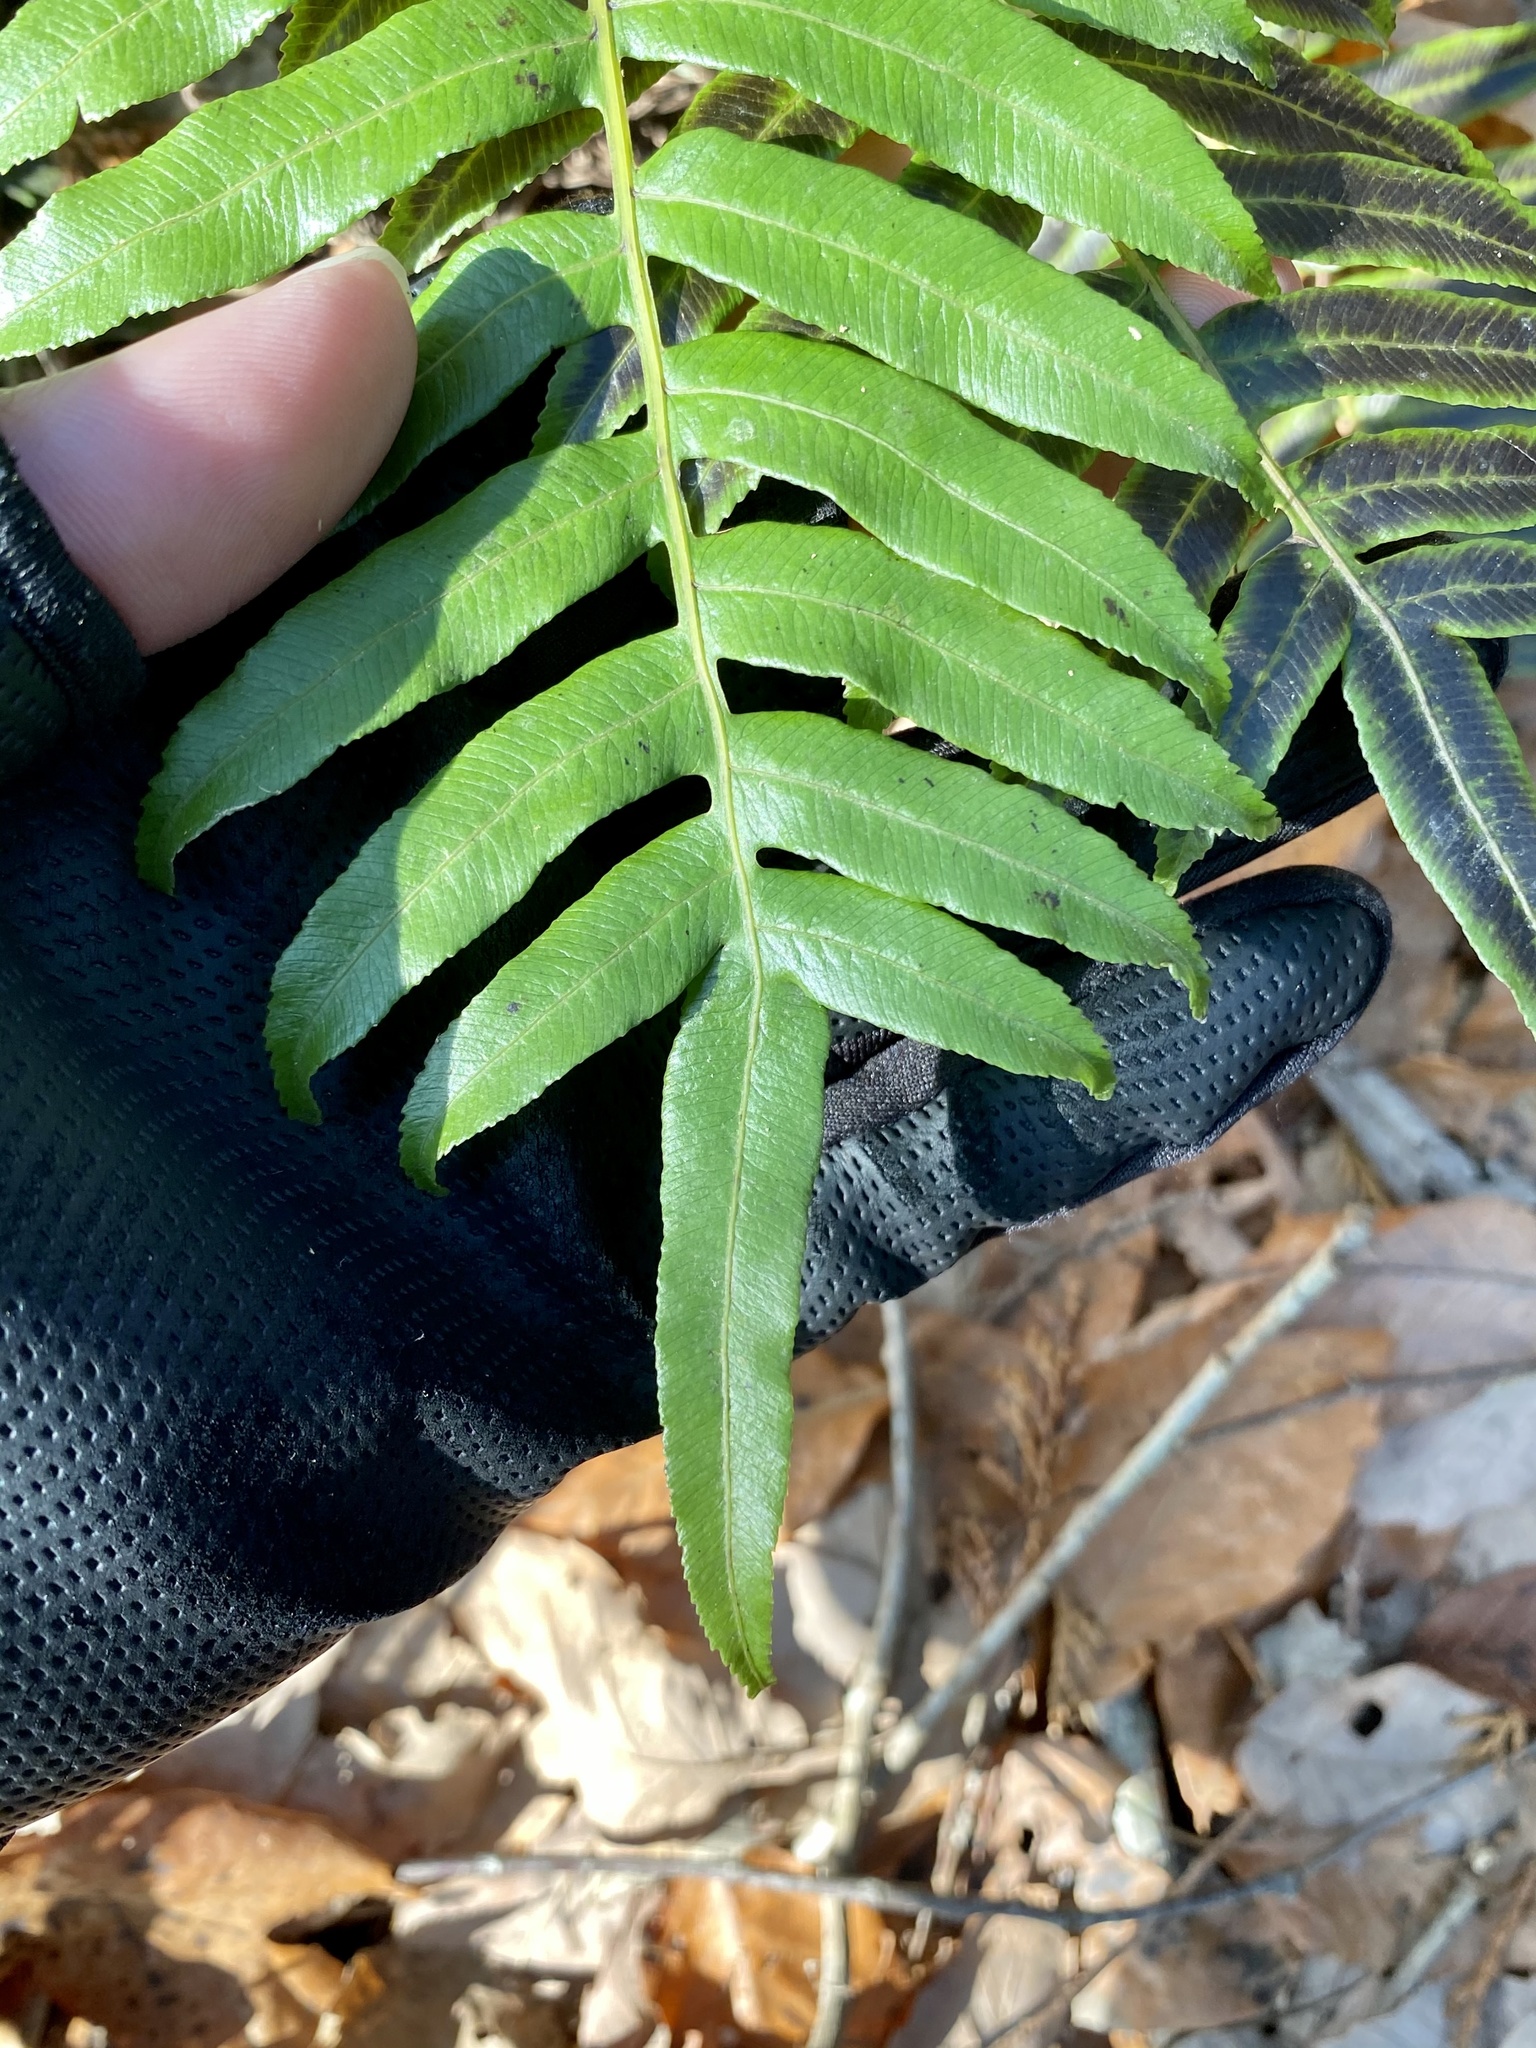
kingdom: Plantae
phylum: Tracheophyta
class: Polypodiopsida
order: Cyatheales
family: Plagiogyriaceae
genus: Plagiogyria
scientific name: Plagiogyria japonica
